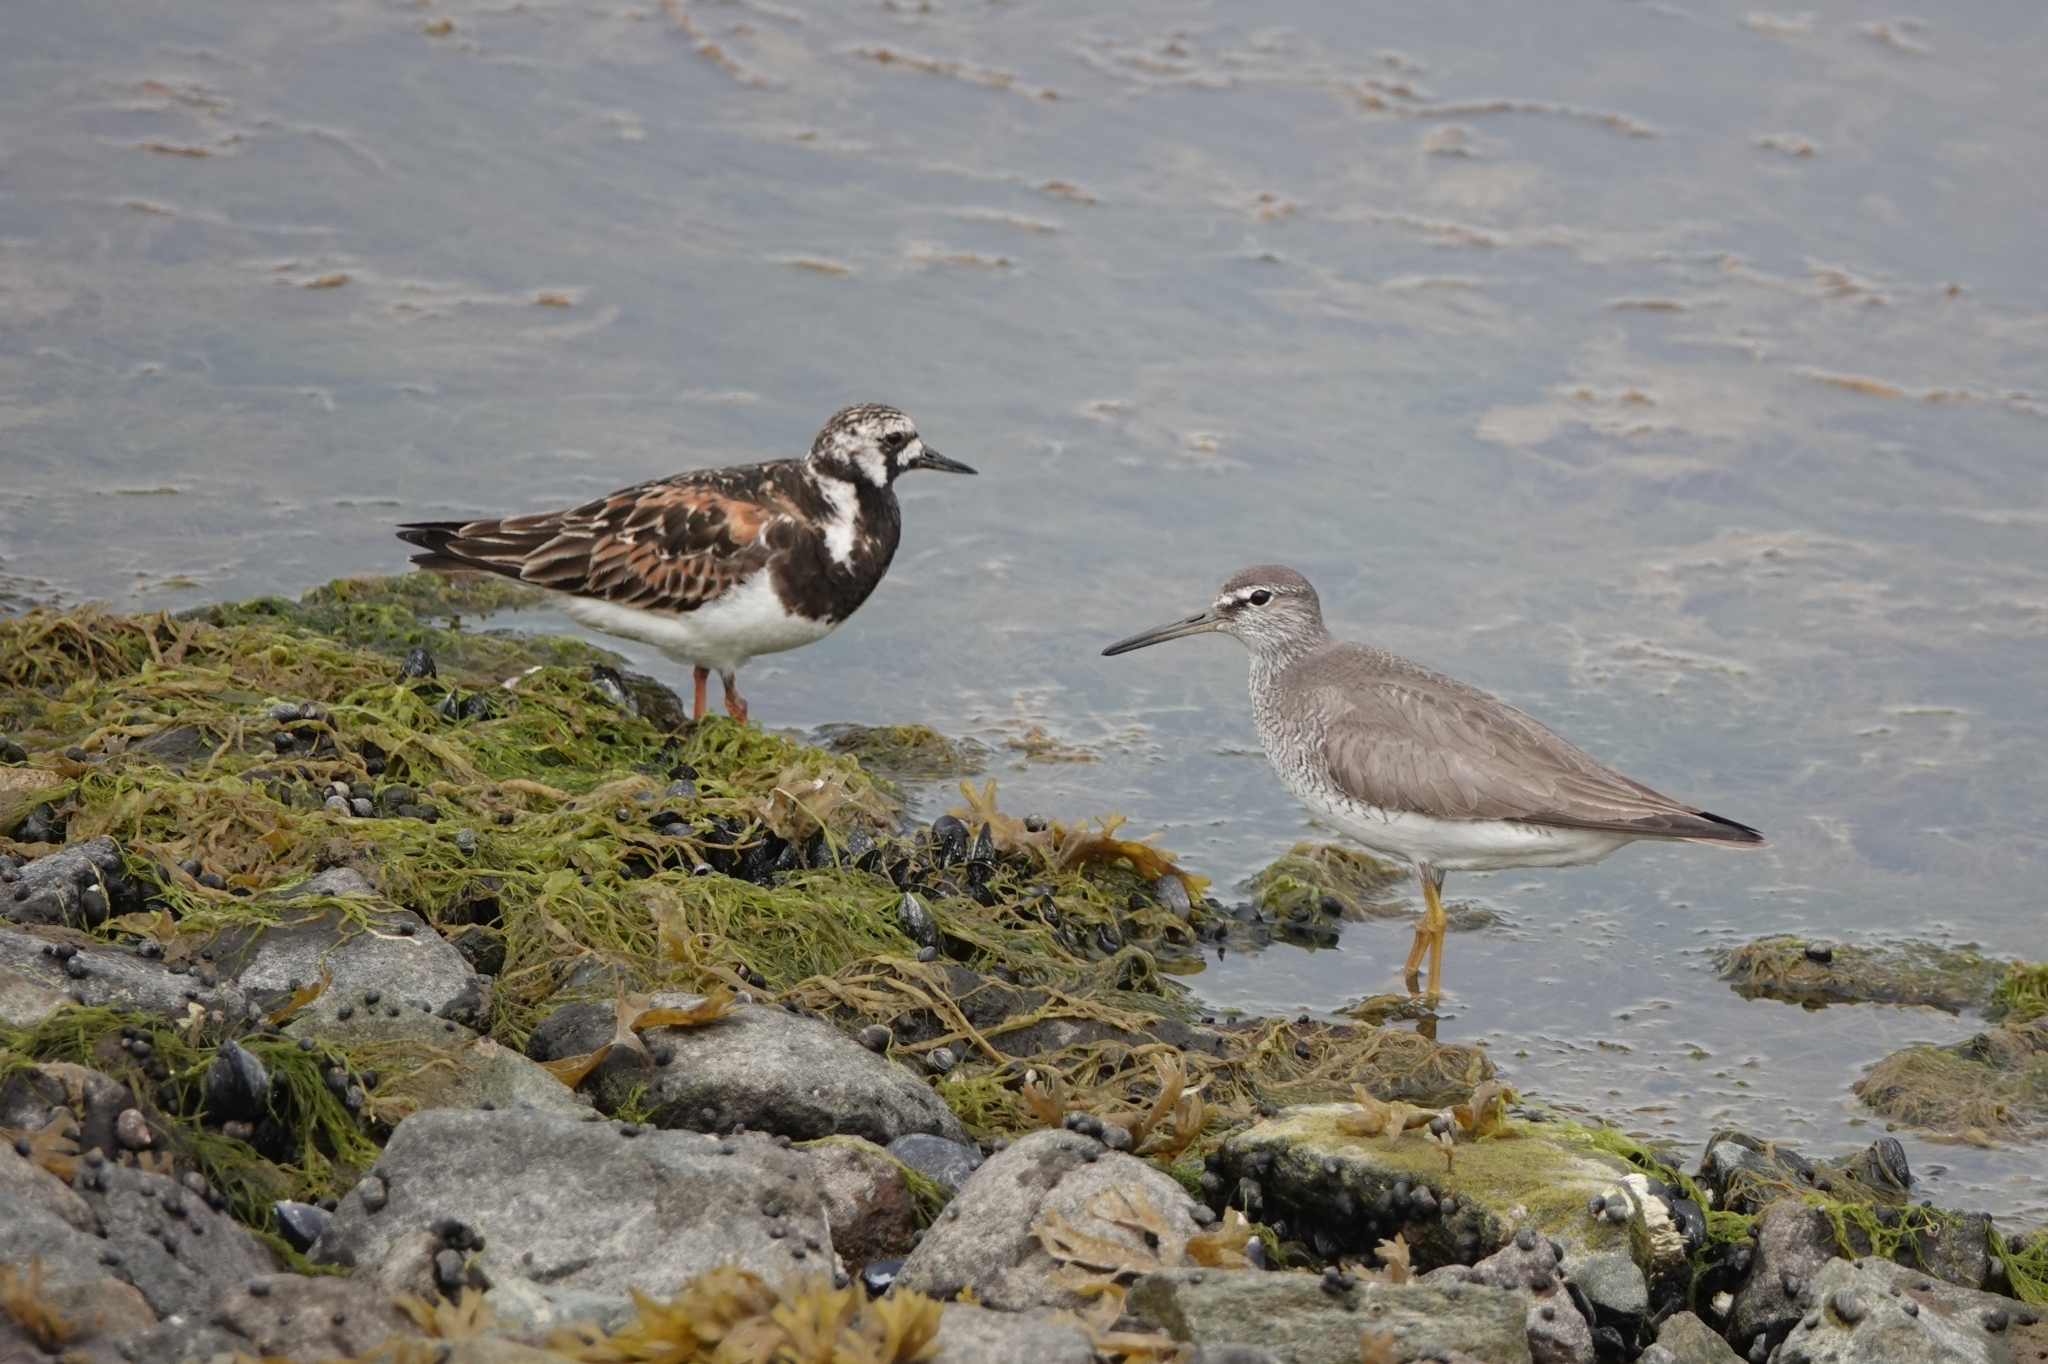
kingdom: Animalia
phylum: Chordata
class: Aves
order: Charadriiformes
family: Scolopacidae
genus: Arenaria
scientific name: Arenaria interpres
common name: Ruddy turnstone
